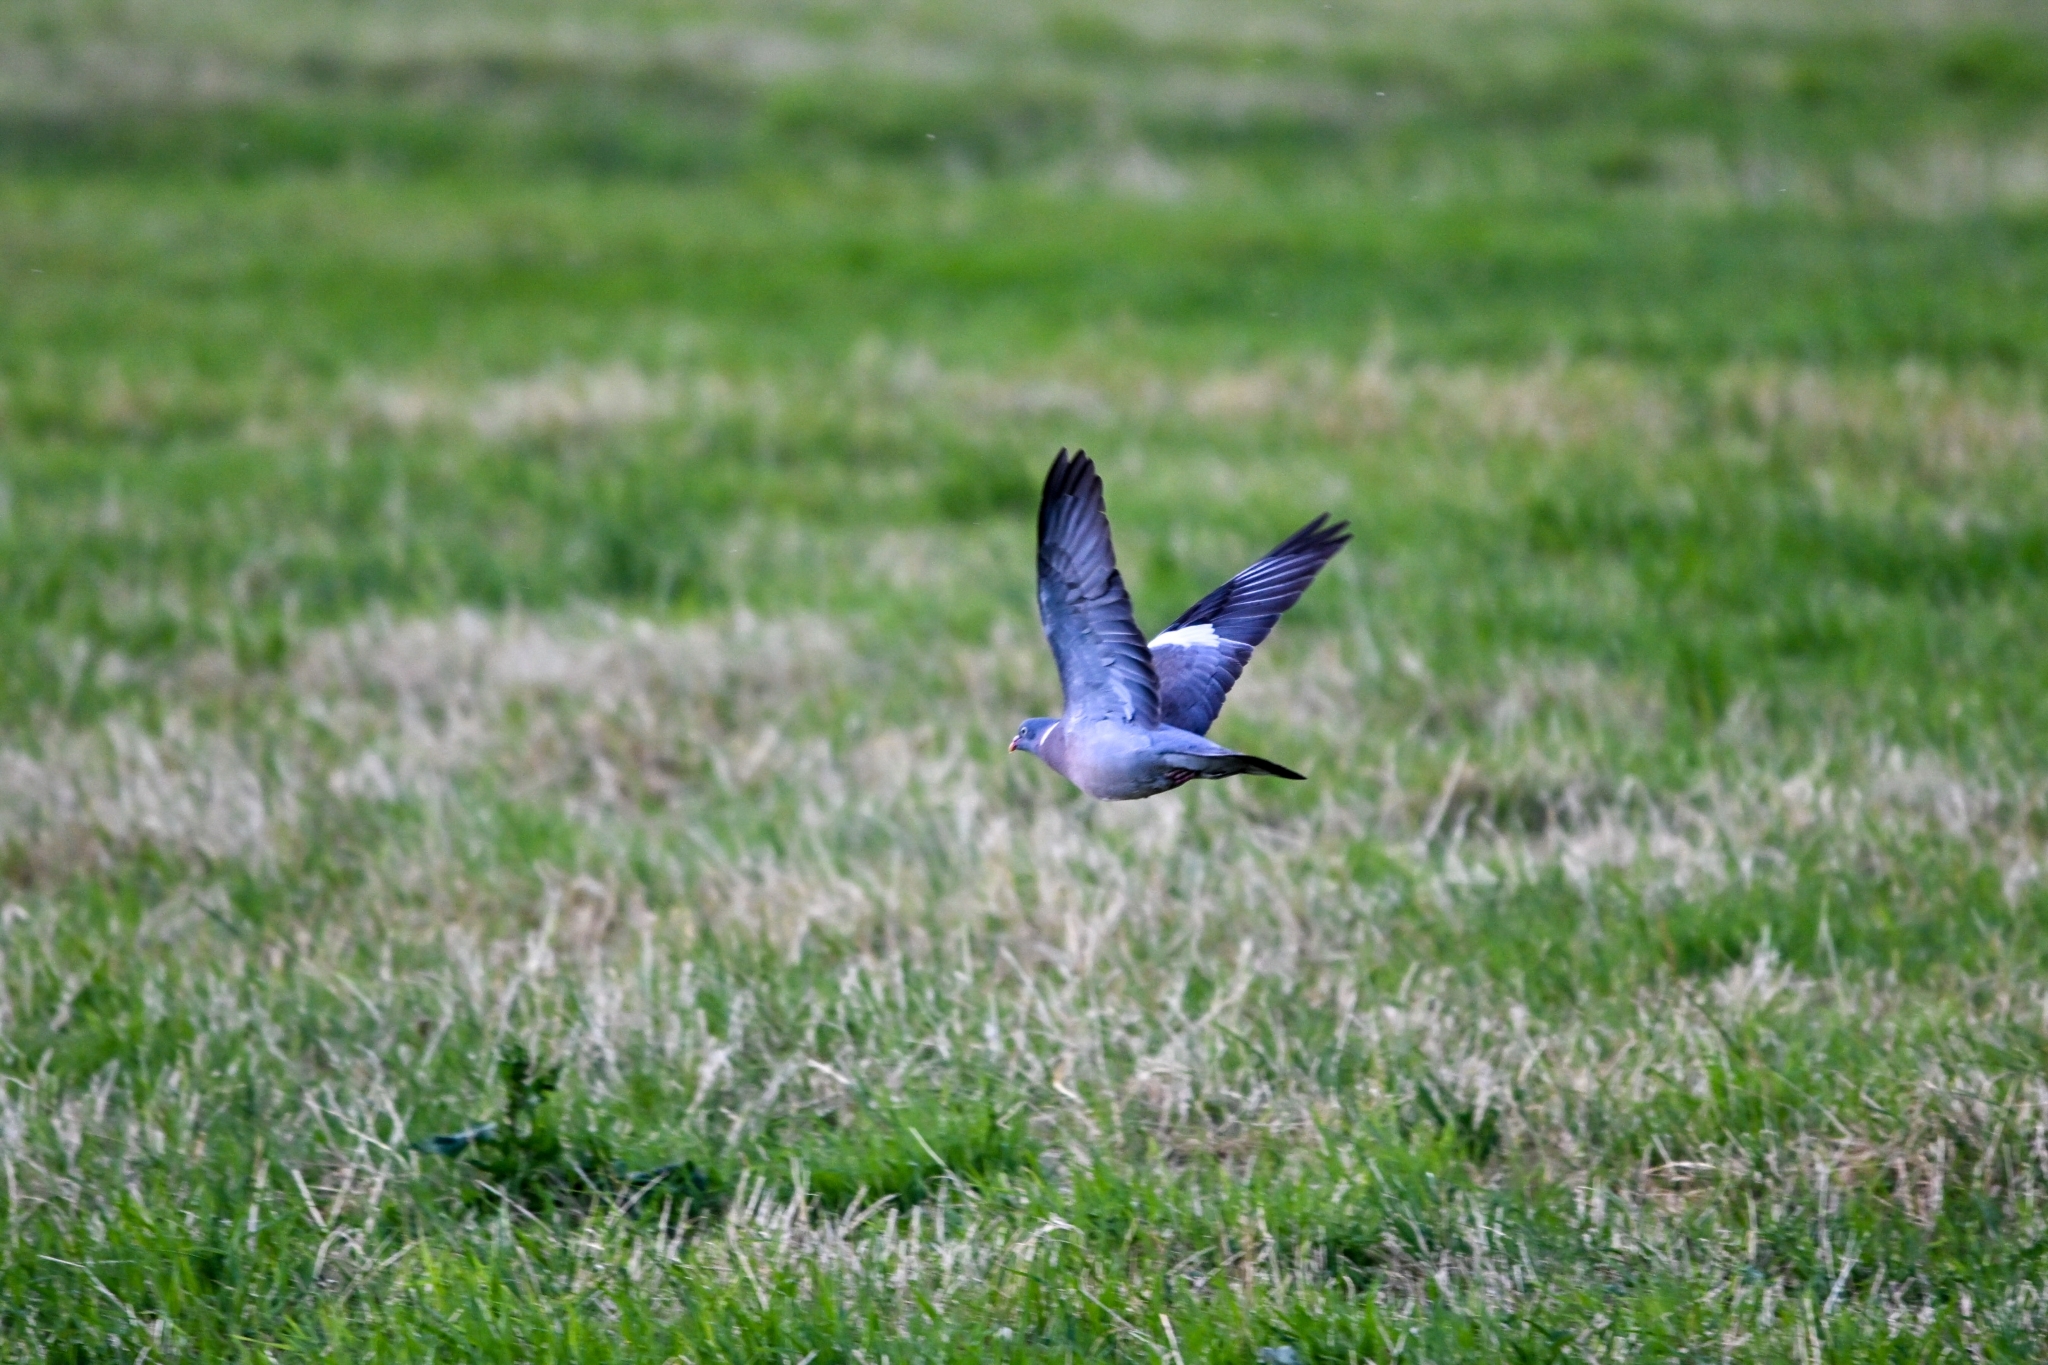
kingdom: Animalia
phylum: Chordata
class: Aves
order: Columbiformes
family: Columbidae
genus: Columba
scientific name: Columba palumbus
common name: Common wood pigeon
